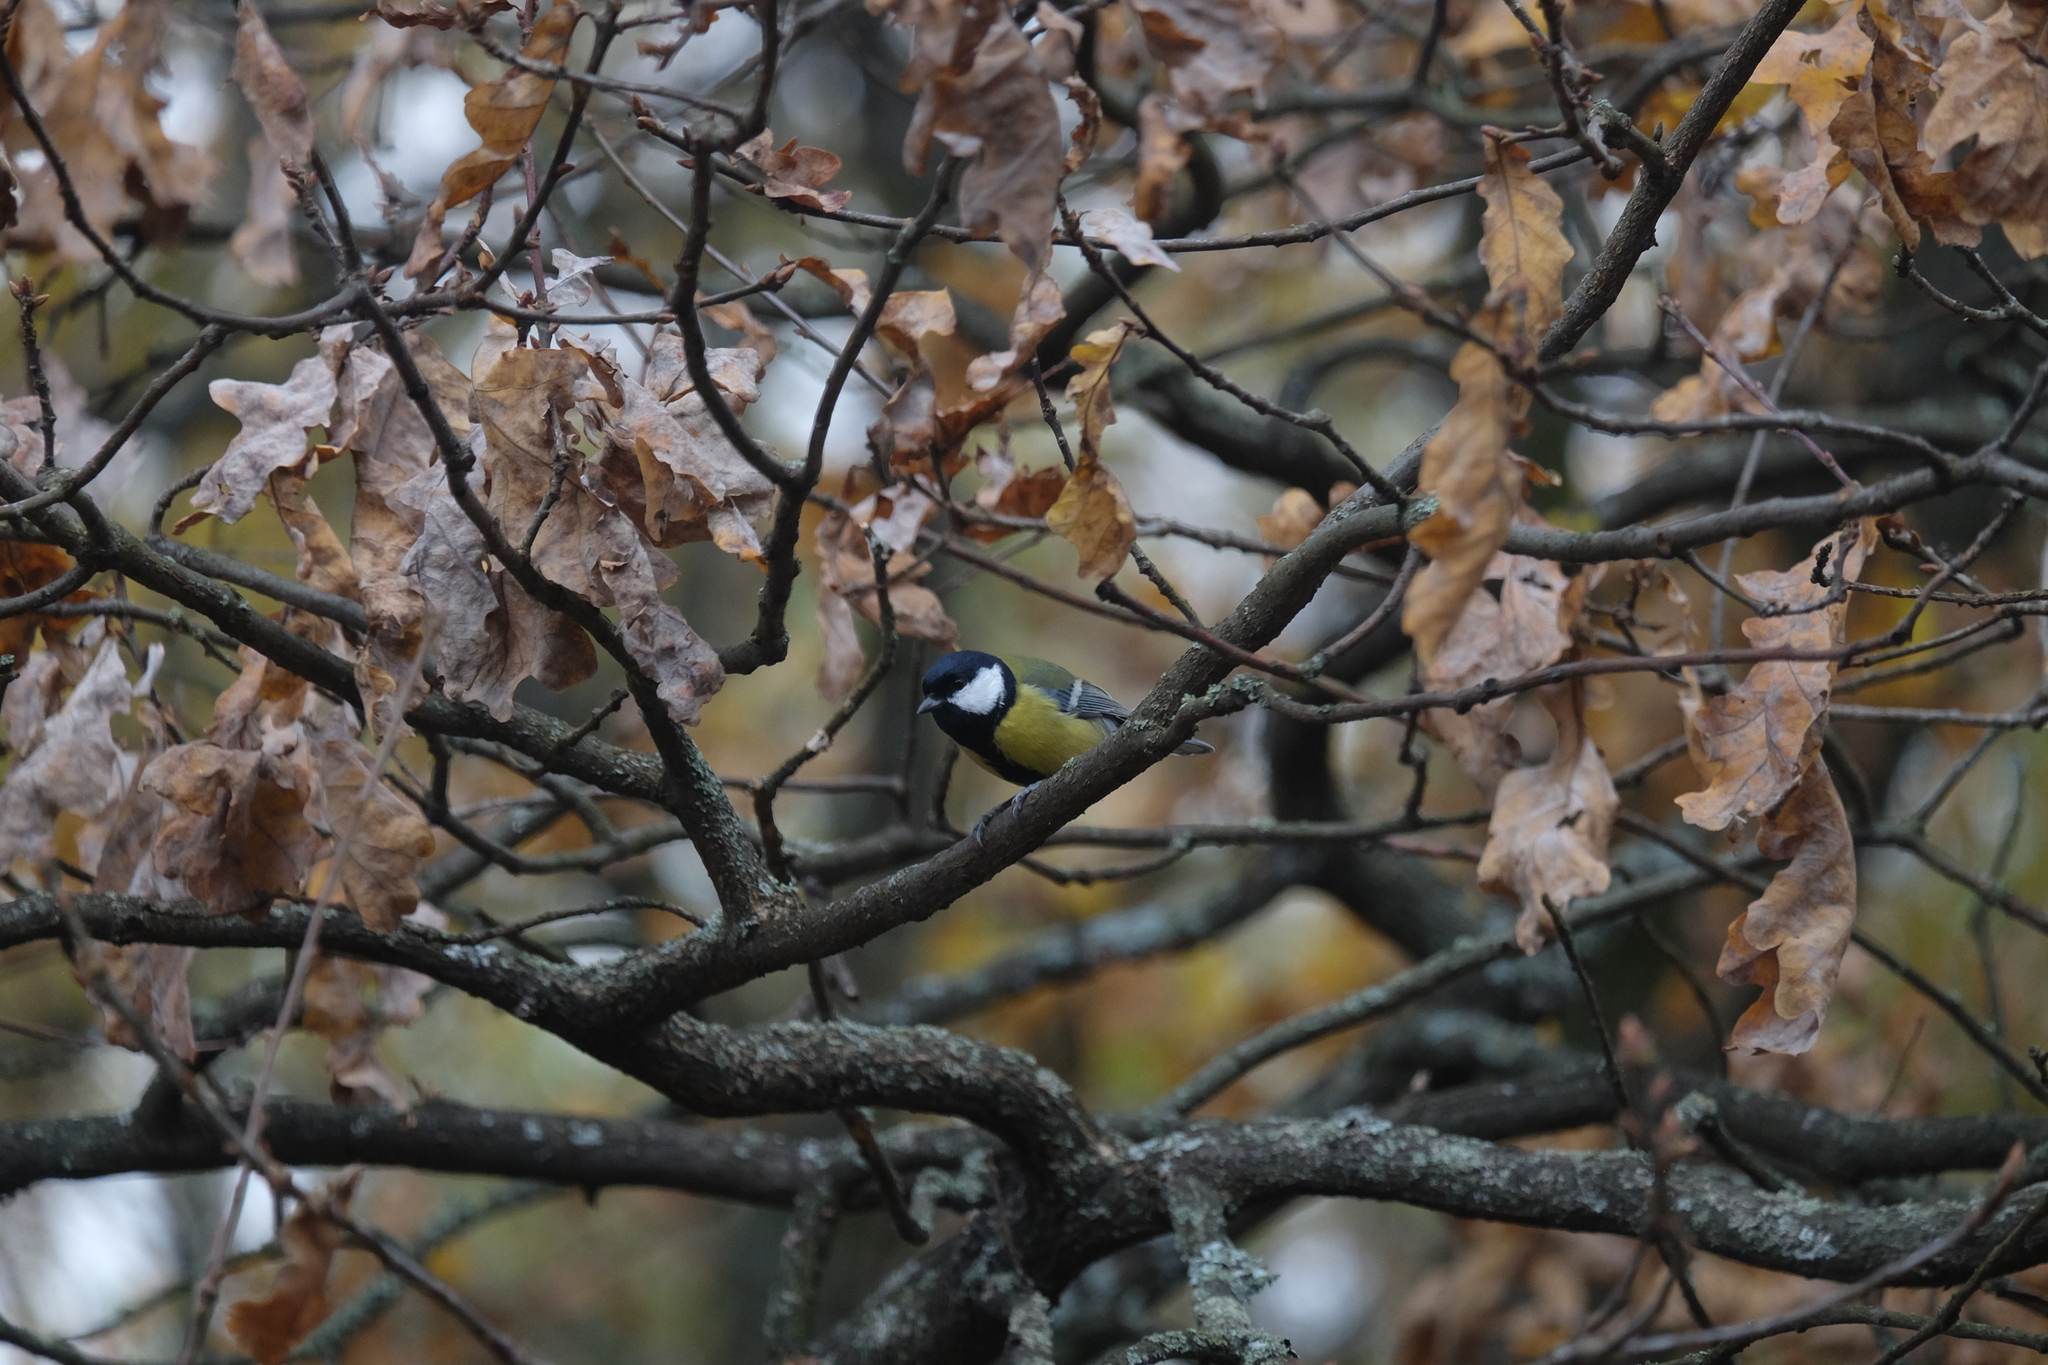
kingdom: Animalia
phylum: Chordata
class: Aves
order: Passeriformes
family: Paridae
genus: Parus
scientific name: Parus major
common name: Great tit
